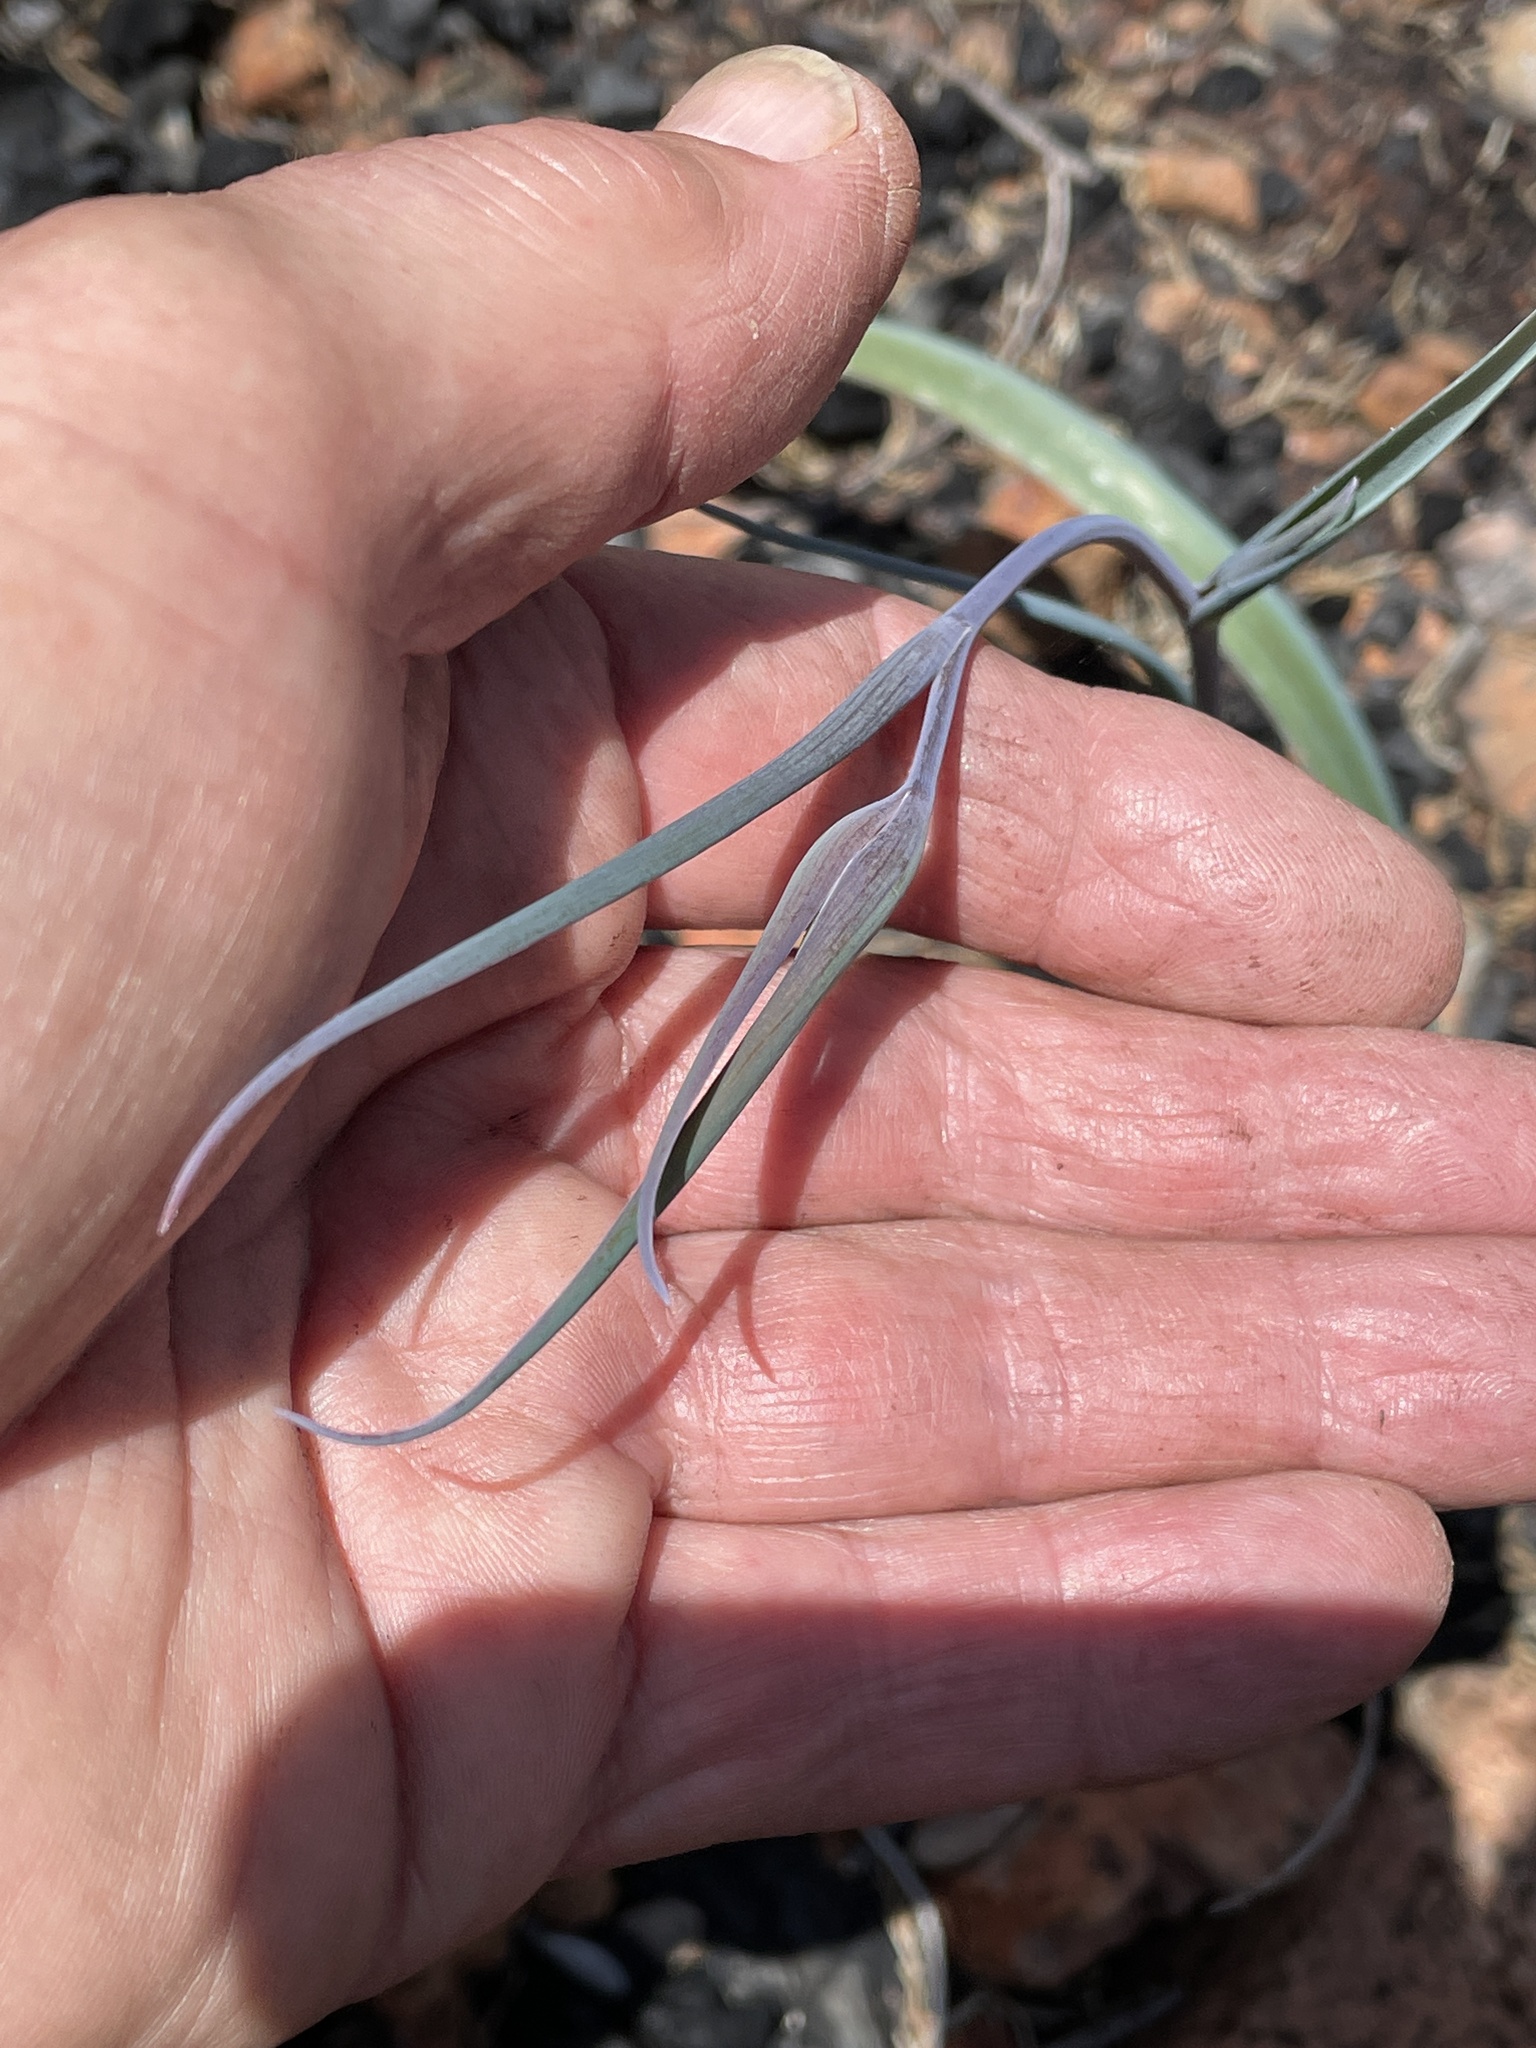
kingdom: Plantae
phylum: Tracheophyta
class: Liliopsida
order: Liliales
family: Liliaceae
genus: Calochortus
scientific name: Calochortus raichei
